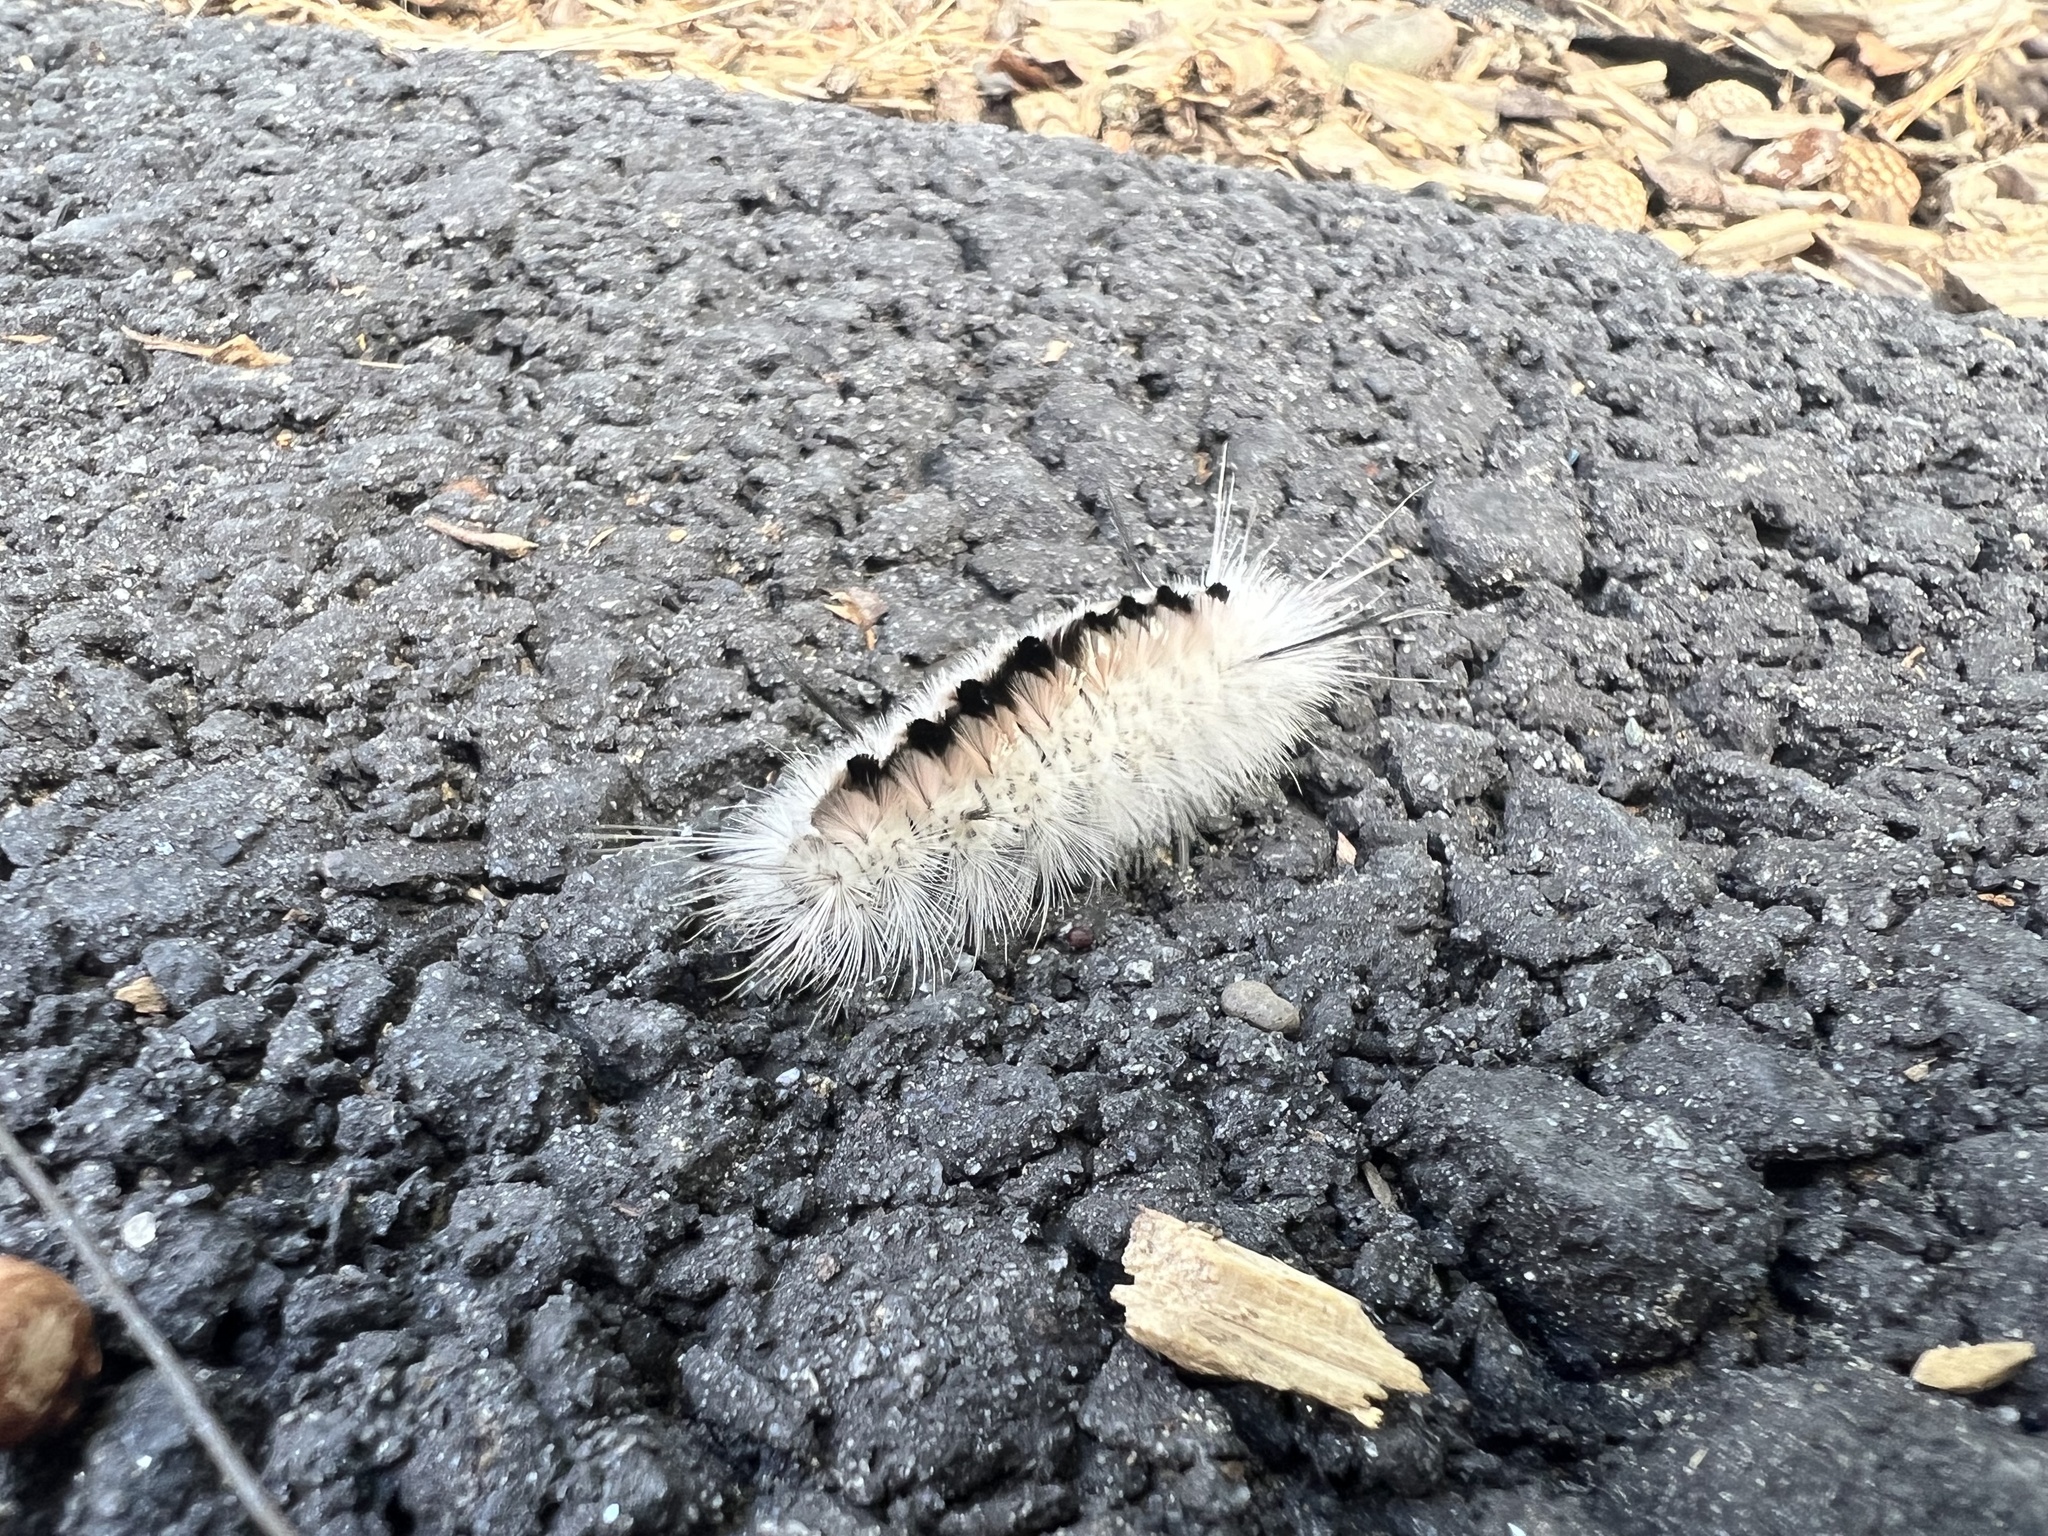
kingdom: Animalia
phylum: Arthropoda
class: Insecta
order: Lepidoptera
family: Erebidae
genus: Lophocampa
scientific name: Lophocampa caryae
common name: Hickory tussock moth
